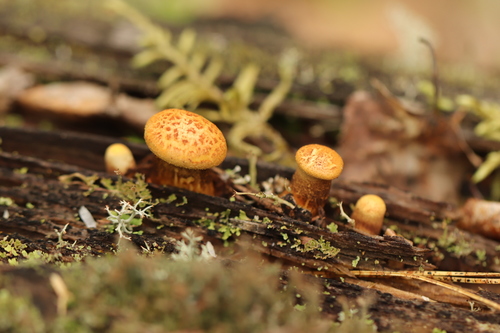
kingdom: Fungi
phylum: Basidiomycota
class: Agaricomycetes
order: Gloeophyllales
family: Gloeophyllaceae
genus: Neolentinus
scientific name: Neolentinus lepideus
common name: Scaly sawgill
